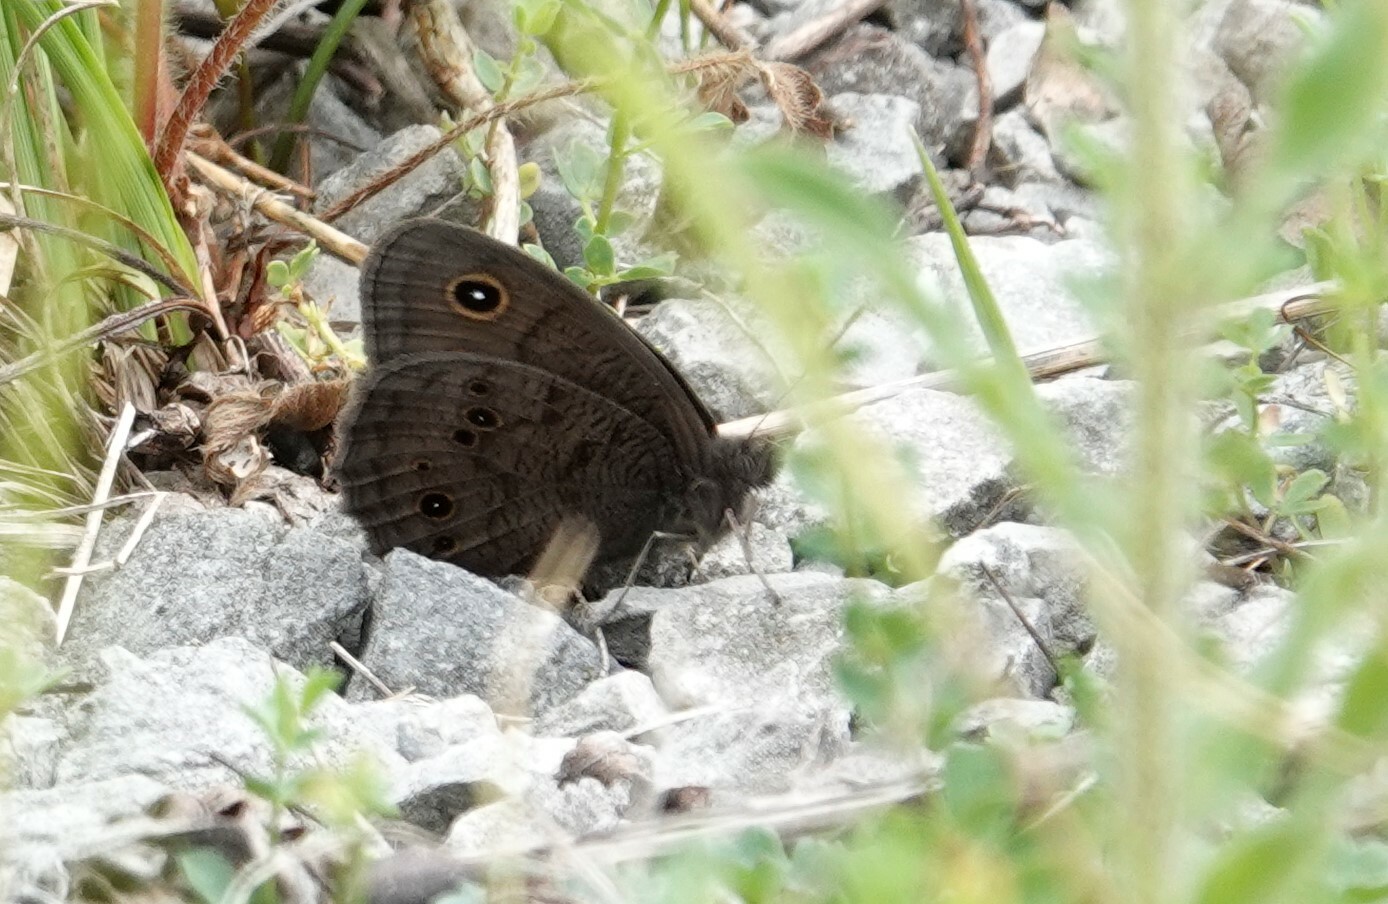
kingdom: Animalia
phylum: Arthropoda
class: Insecta
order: Lepidoptera
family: Nymphalidae
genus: Cercyonis
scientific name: Cercyonis pegala
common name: Common wood-nymph
